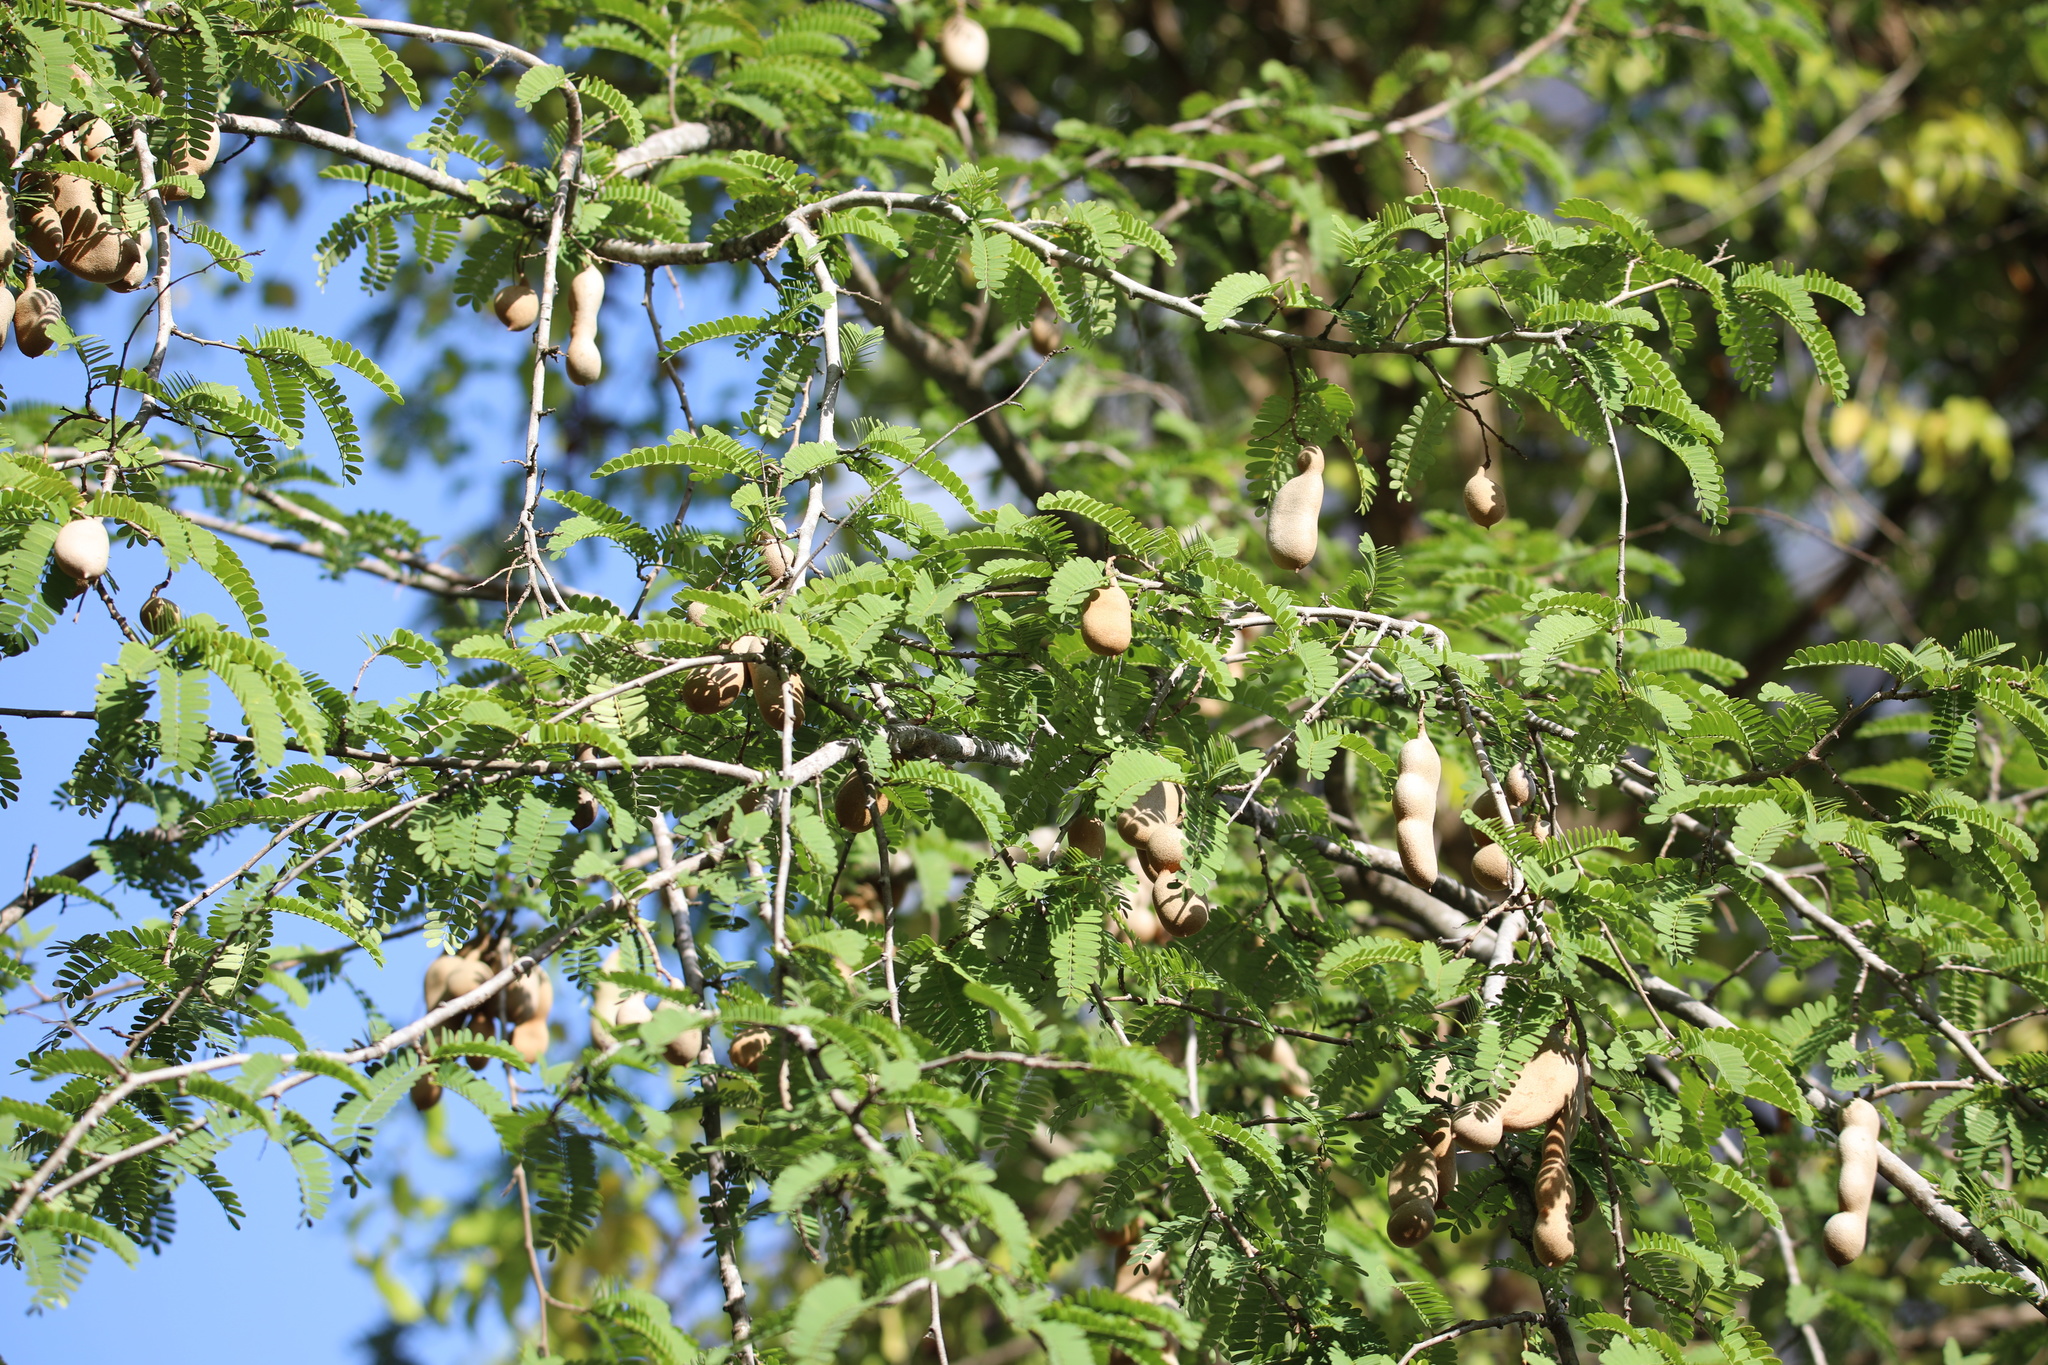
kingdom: Plantae
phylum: Tracheophyta
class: Magnoliopsida
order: Fabales
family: Fabaceae
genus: Tamarindus
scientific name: Tamarindus indica
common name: Tamarind
